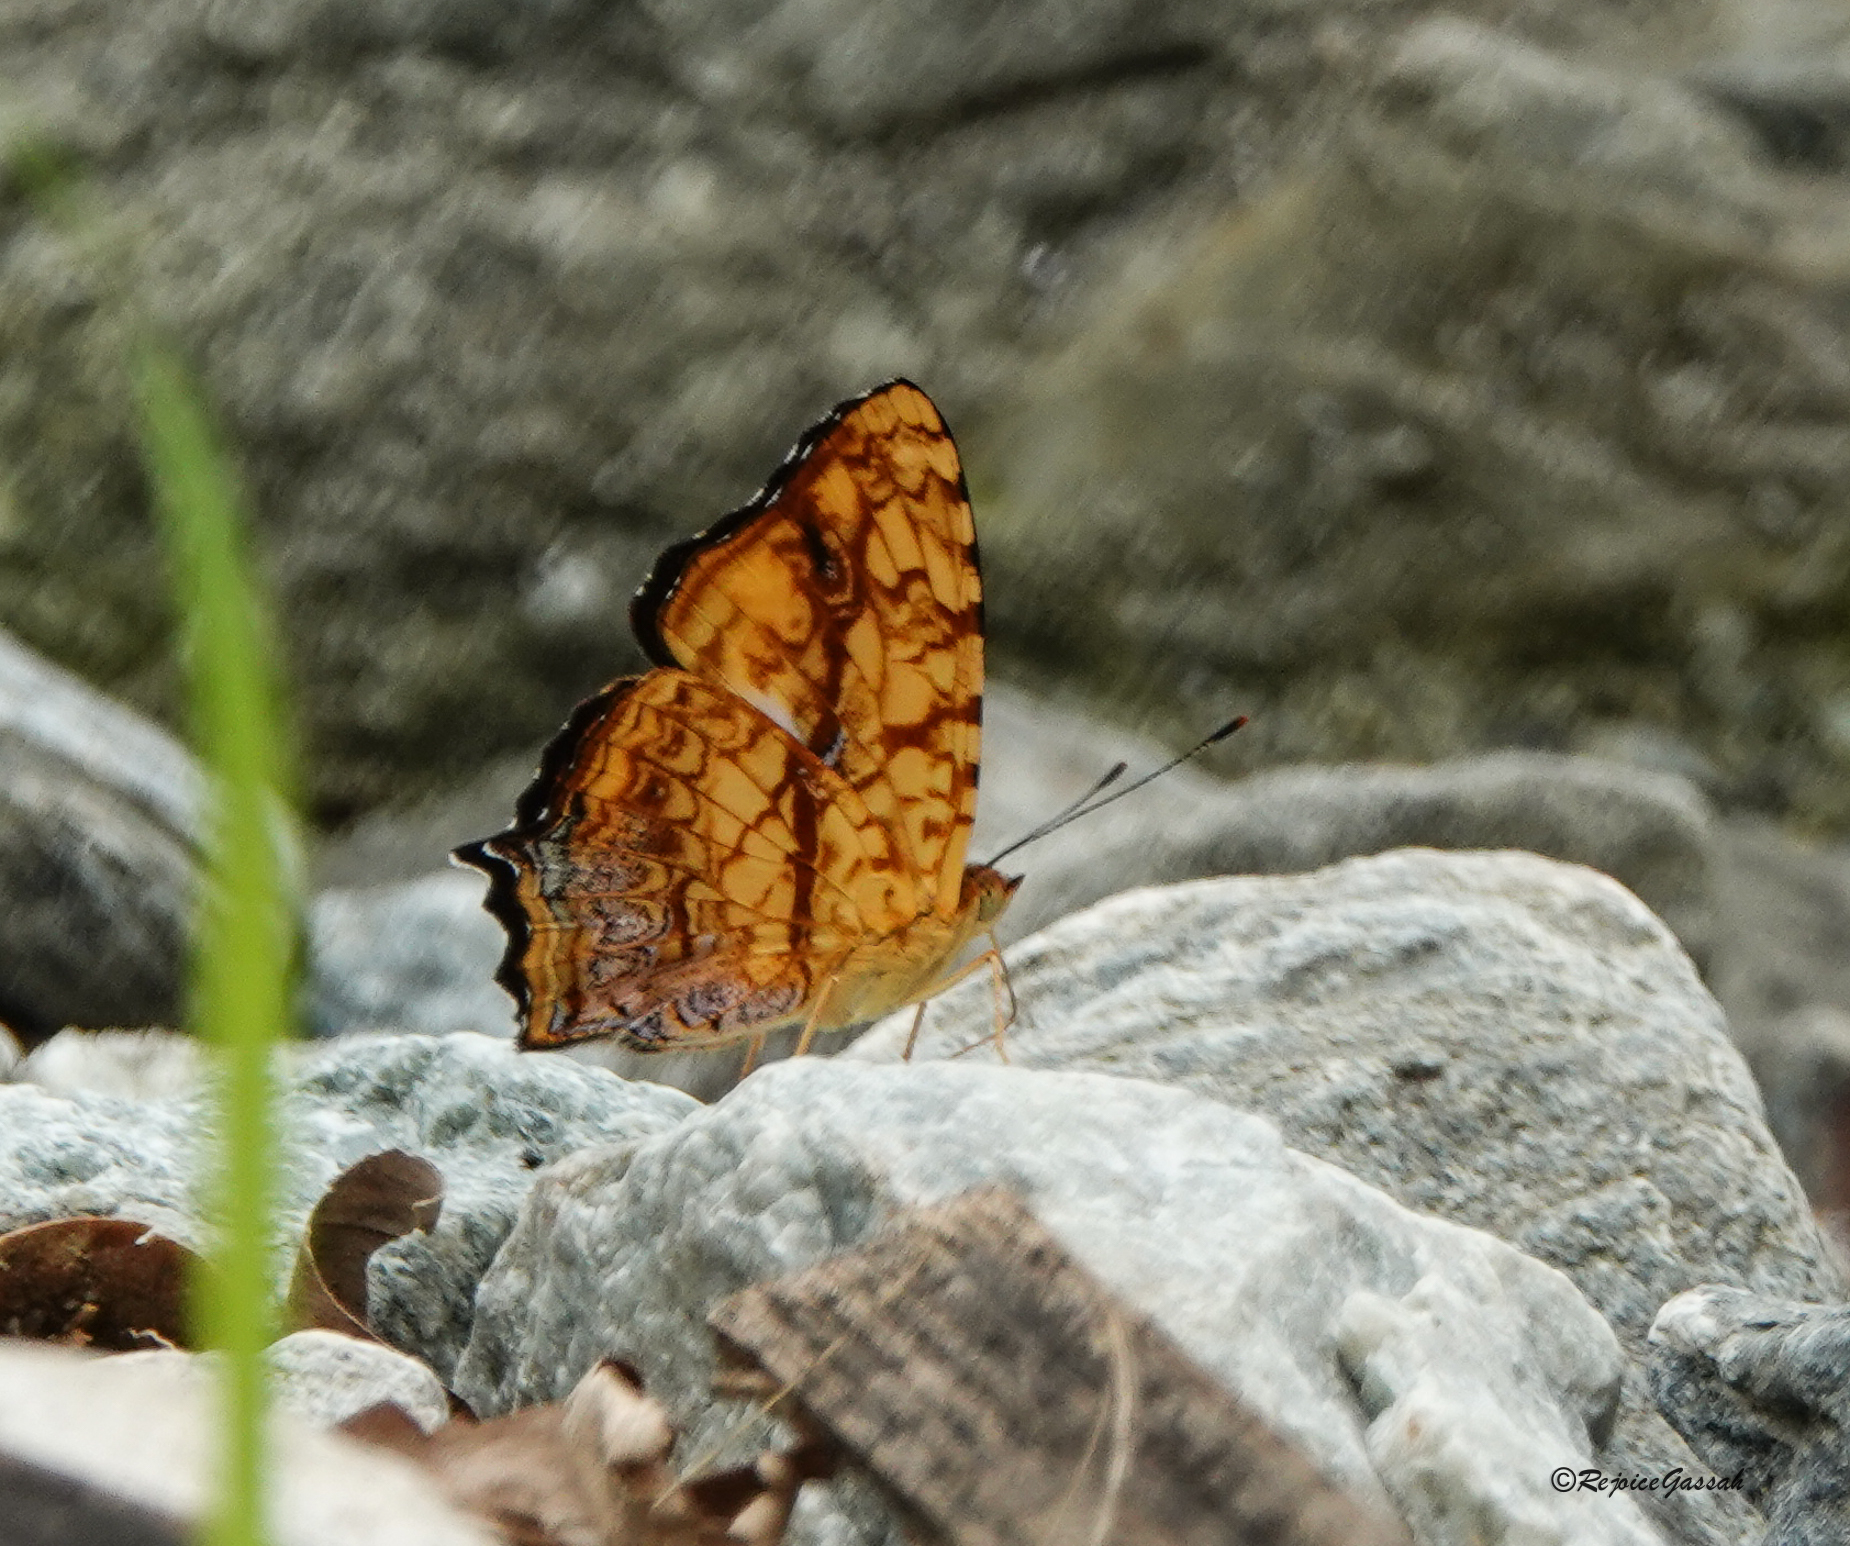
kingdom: Animalia
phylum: Arthropoda
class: Insecta
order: Lepidoptera
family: Nymphalidae
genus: Symbrenthia
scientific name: Symbrenthia hypselis
